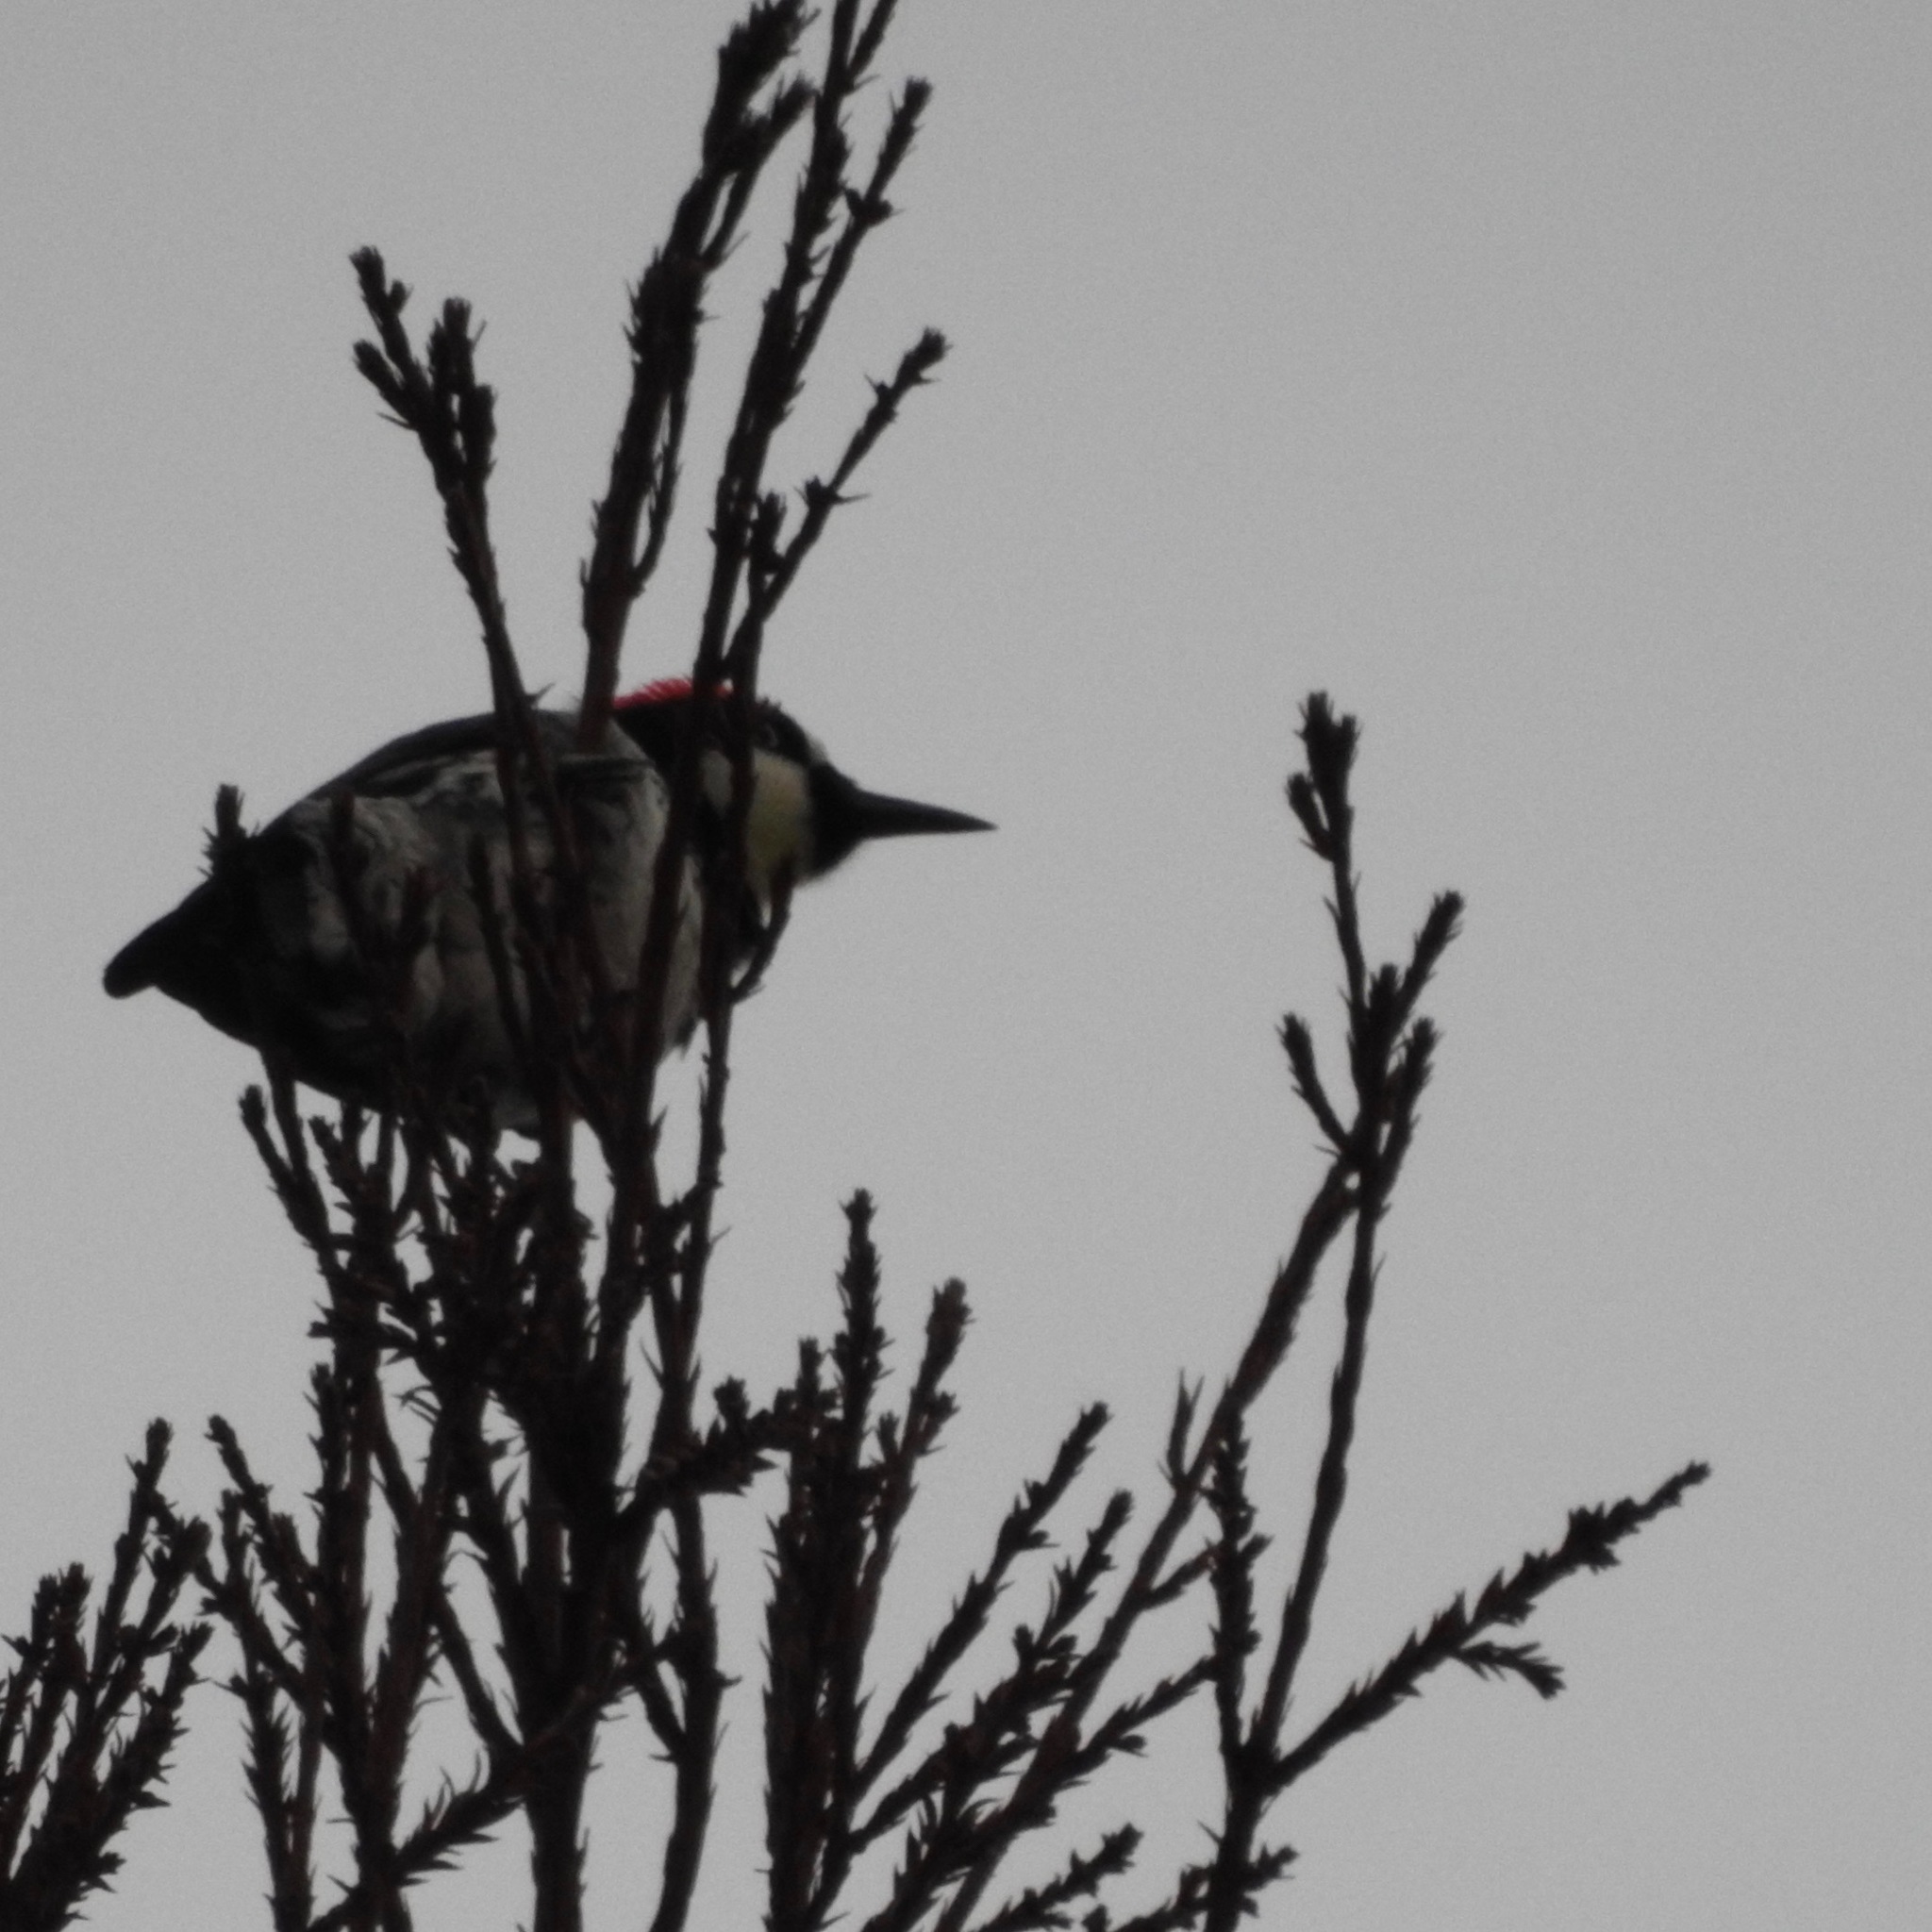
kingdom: Animalia
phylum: Chordata
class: Aves
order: Piciformes
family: Picidae
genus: Melanerpes
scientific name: Melanerpes formicivorus
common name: Acorn woodpecker
